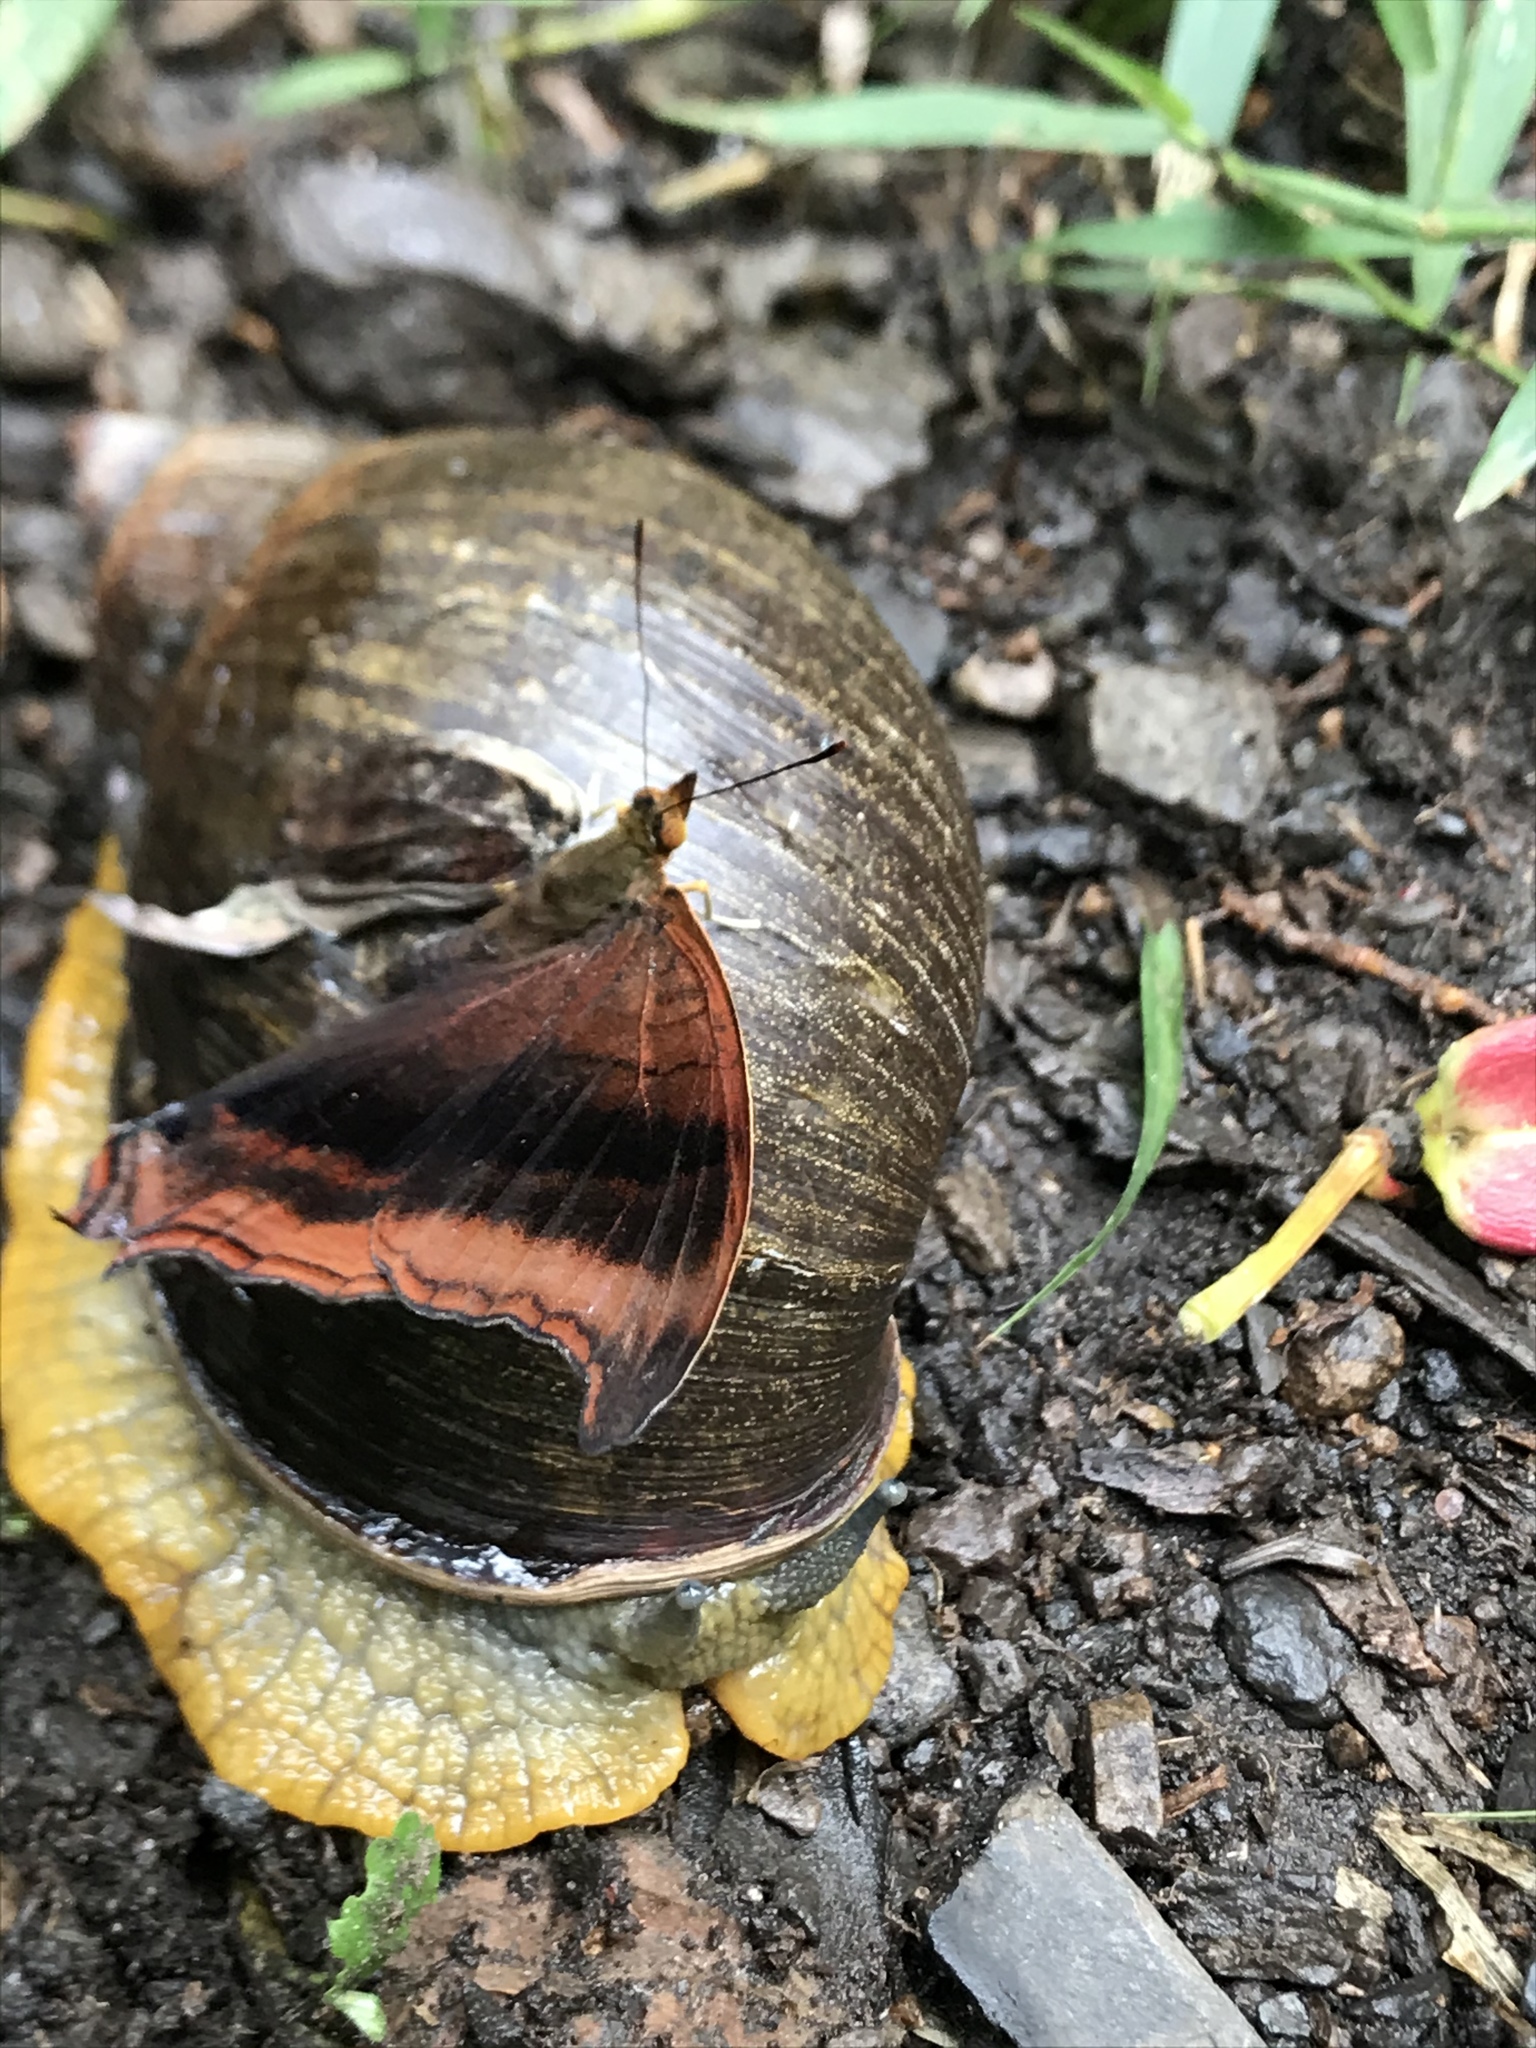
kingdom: Animalia
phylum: Arthropoda
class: Insecta
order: Lepidoptera
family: Nymphalidae
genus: Marpesia
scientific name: Marpesia zerynthia
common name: Waiter daggerwing
